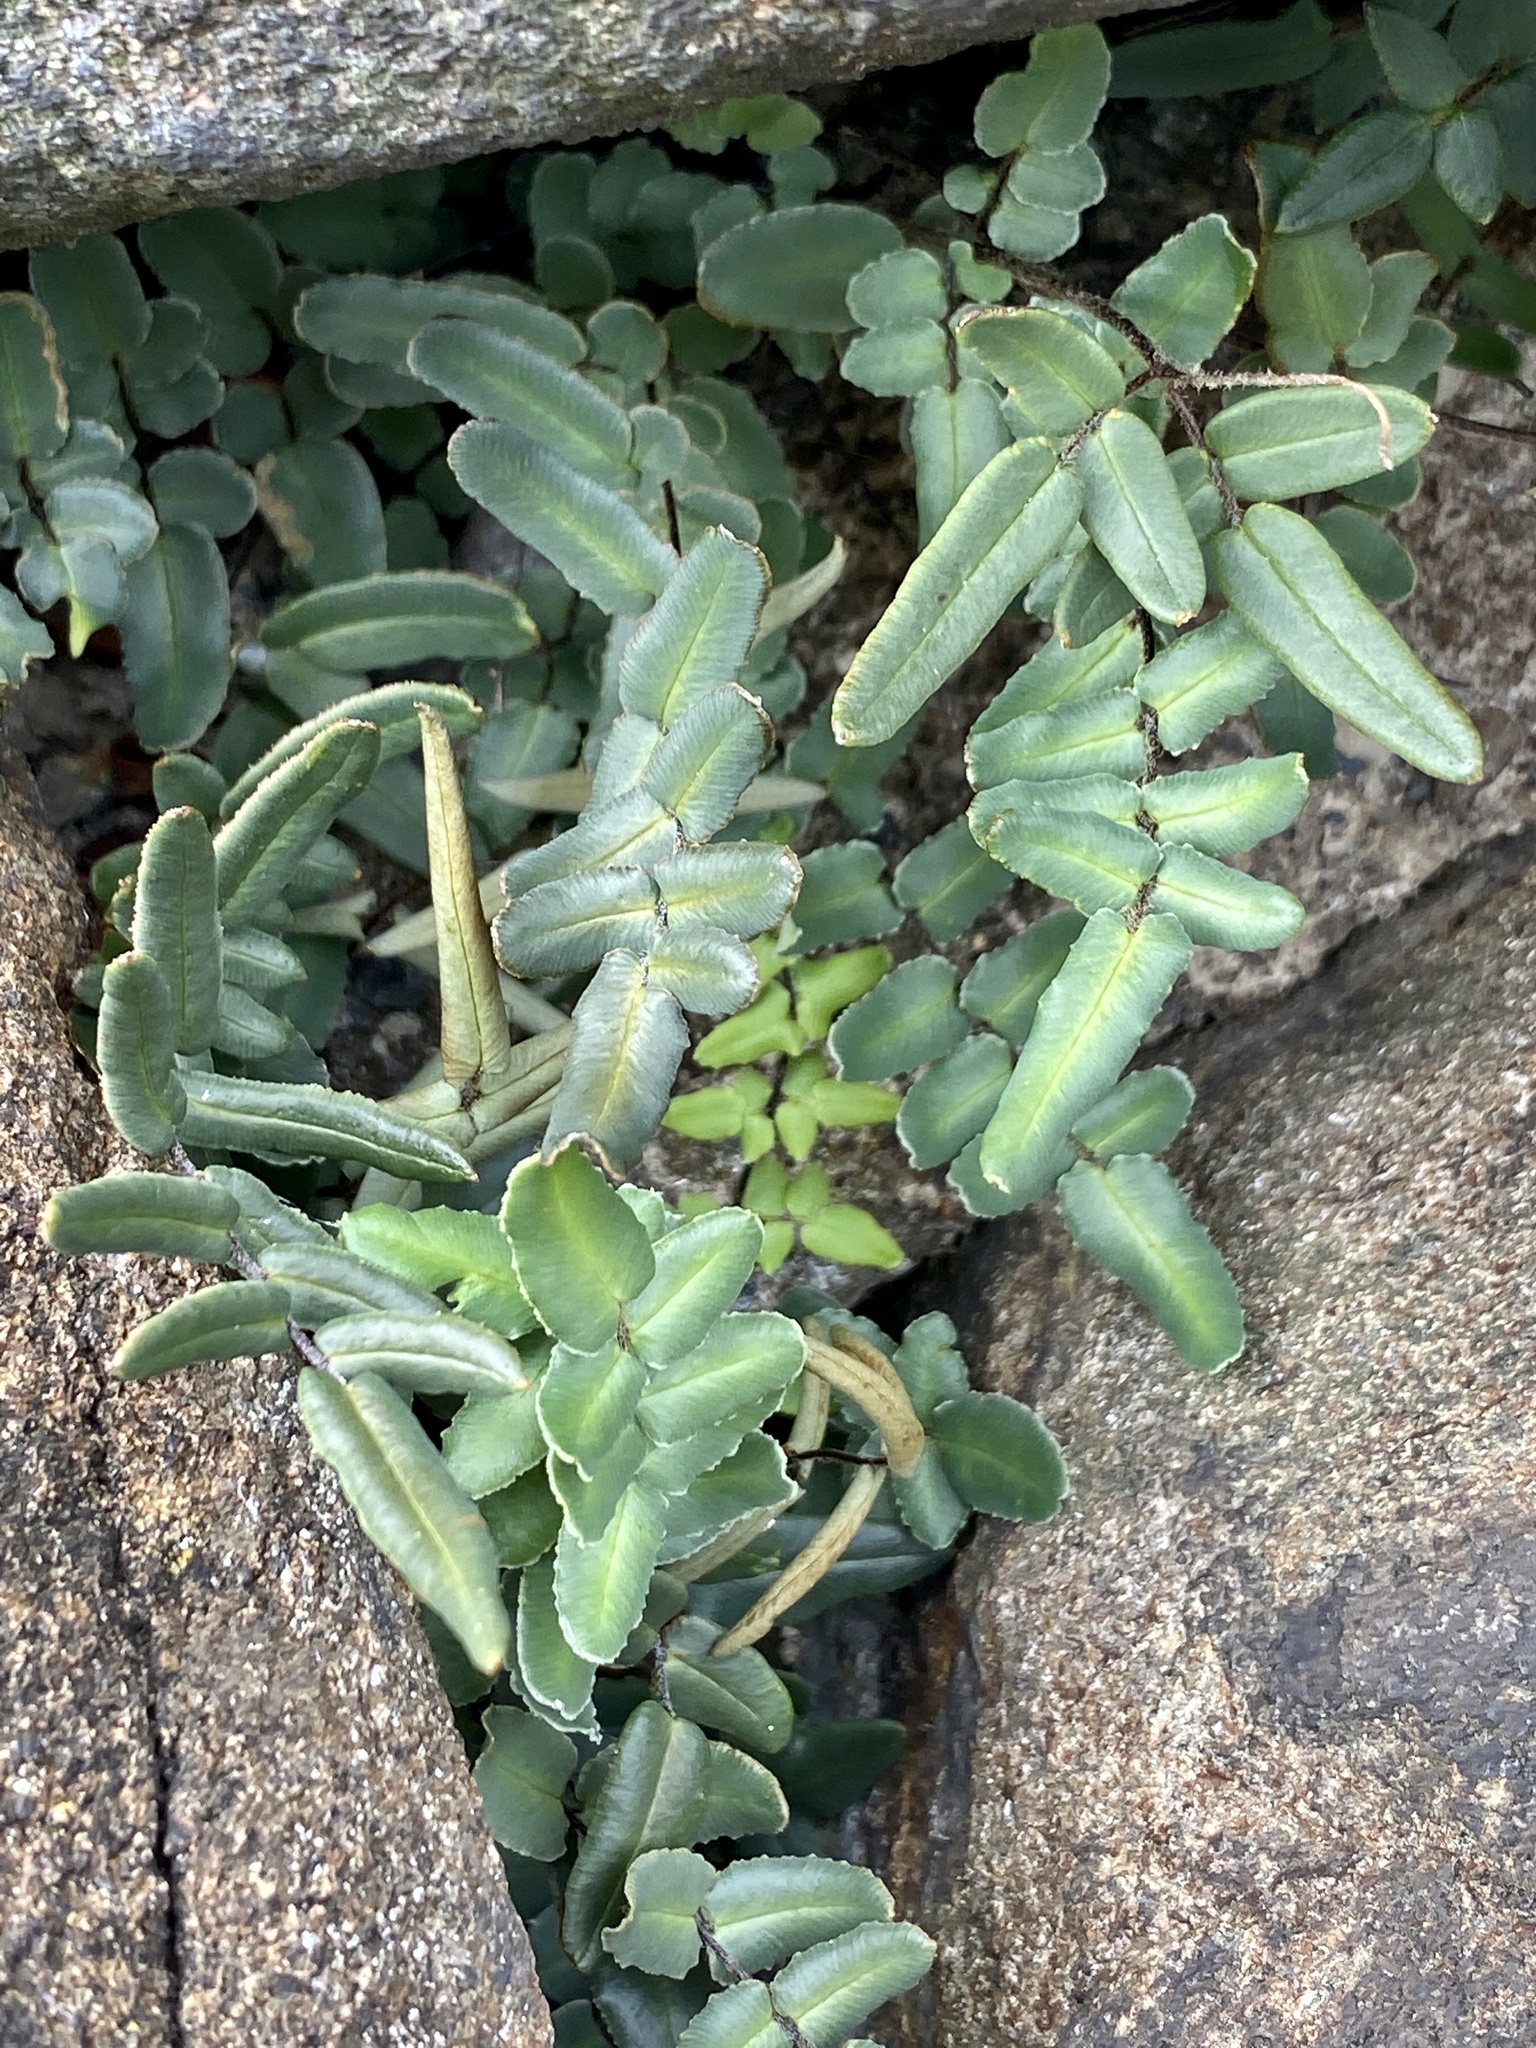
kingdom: Plantae
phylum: Tracheophyta
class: Polypodiopsida
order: Polypodiales
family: Pteridaceae
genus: Pellaea
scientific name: Pellaea atropurpurea
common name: Hairy cliffbrake
